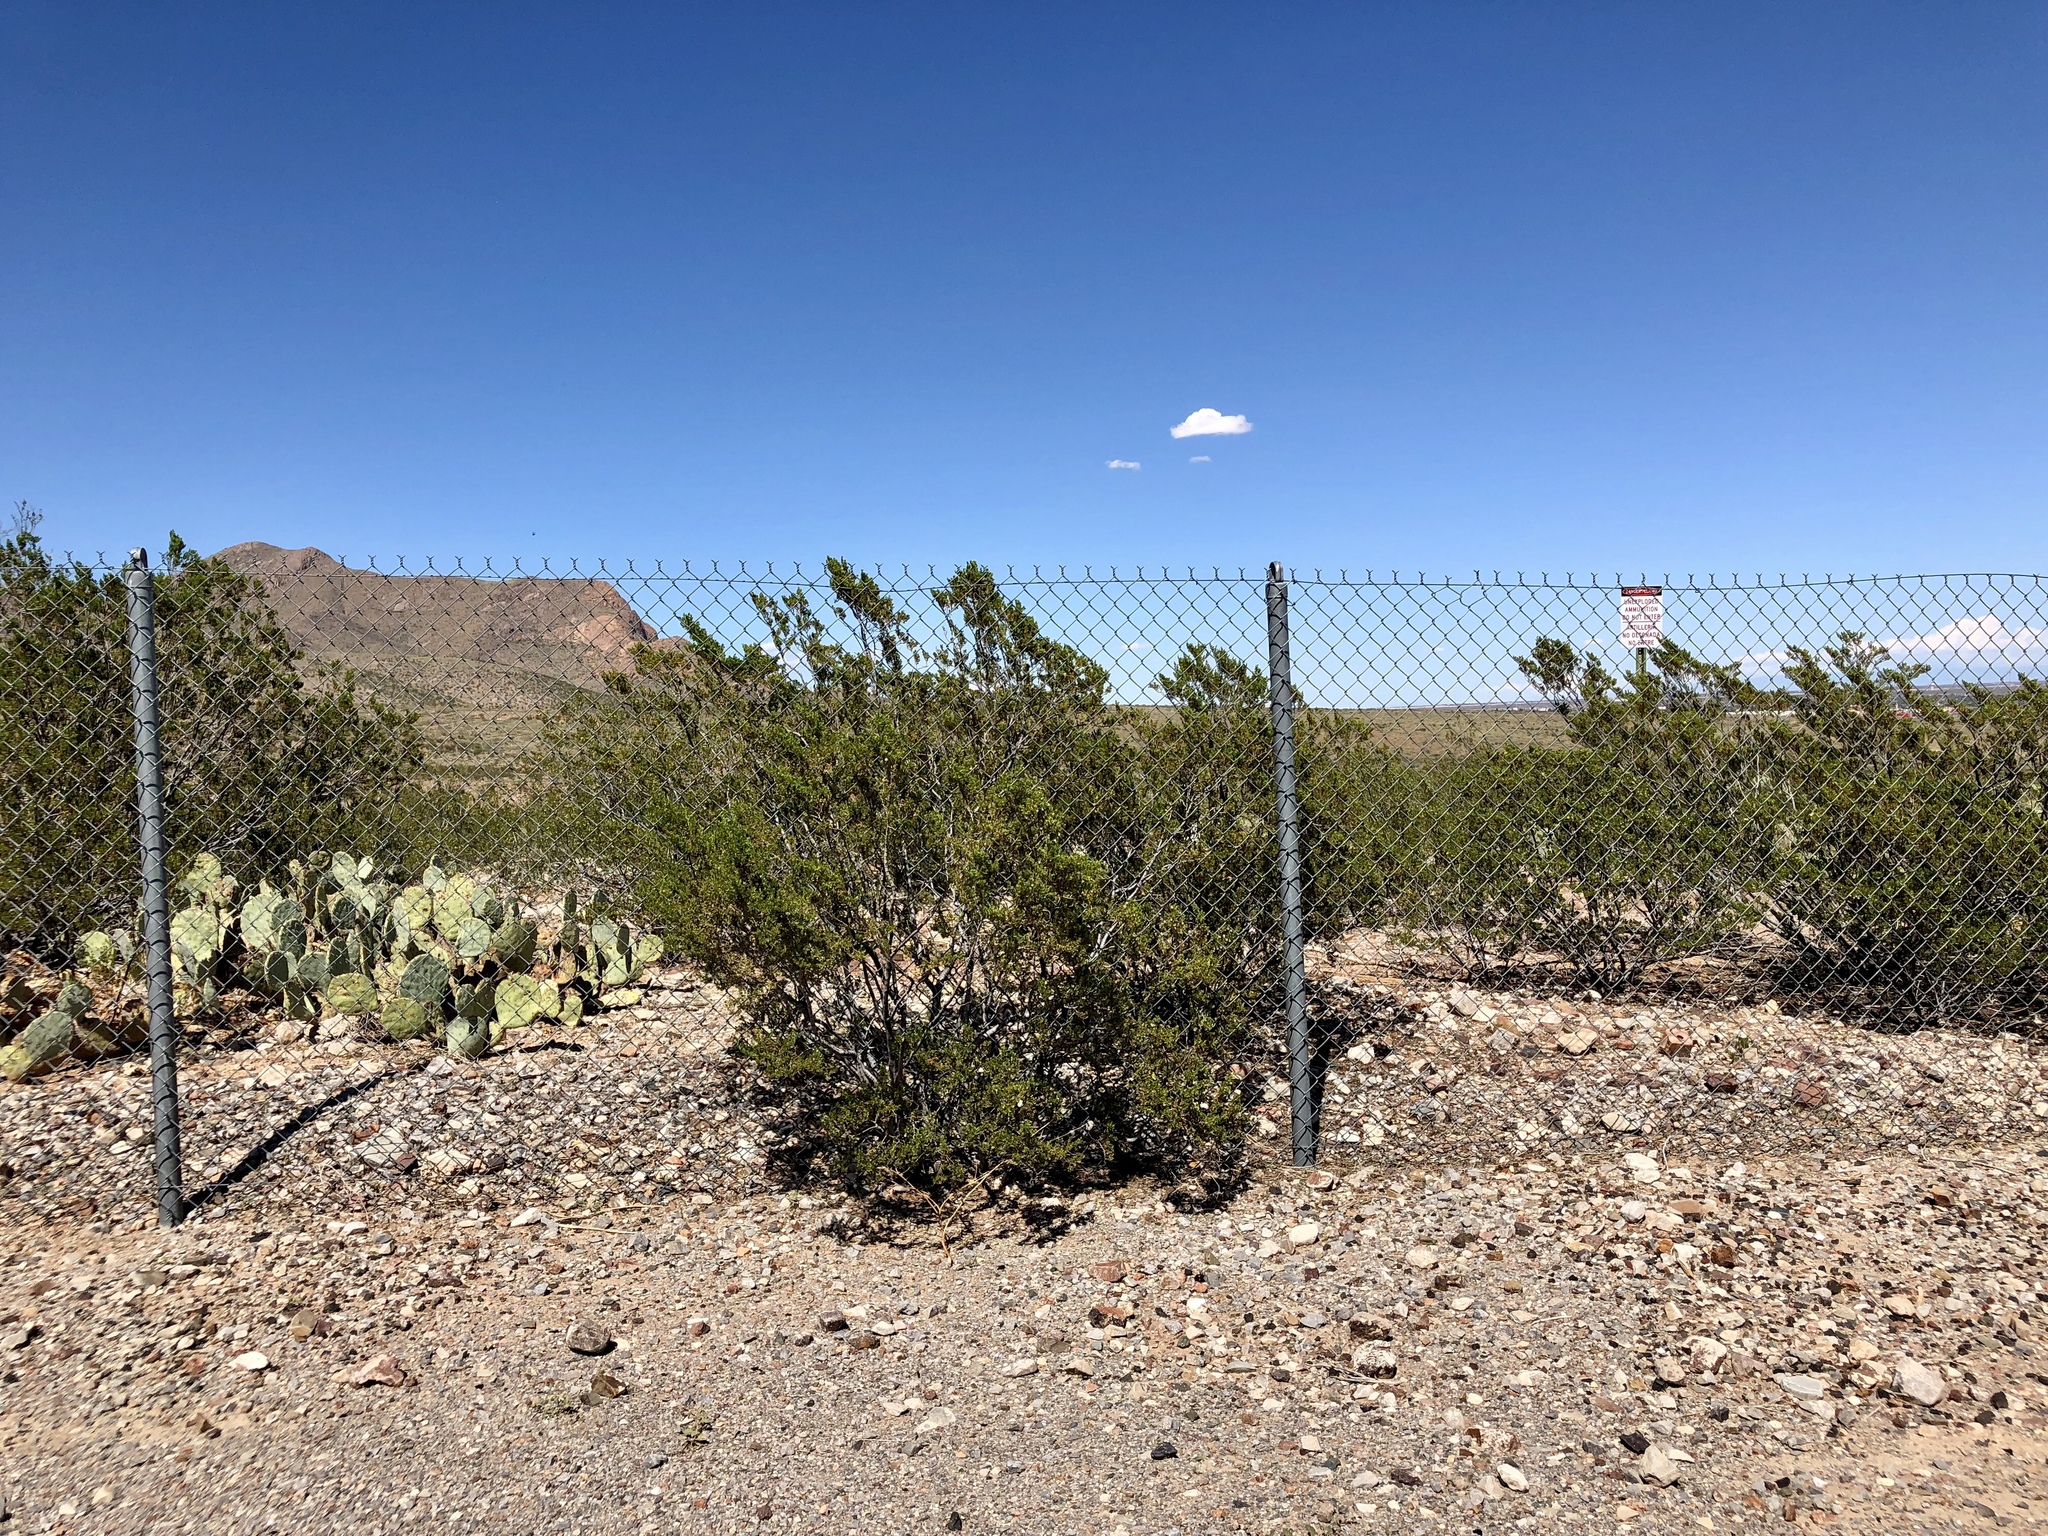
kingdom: Plantae
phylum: Tracheophyta
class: Magnoliopsida
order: Zygophyllales
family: Zygophyllaceae
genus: Larrea
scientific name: Larrea tridentata
